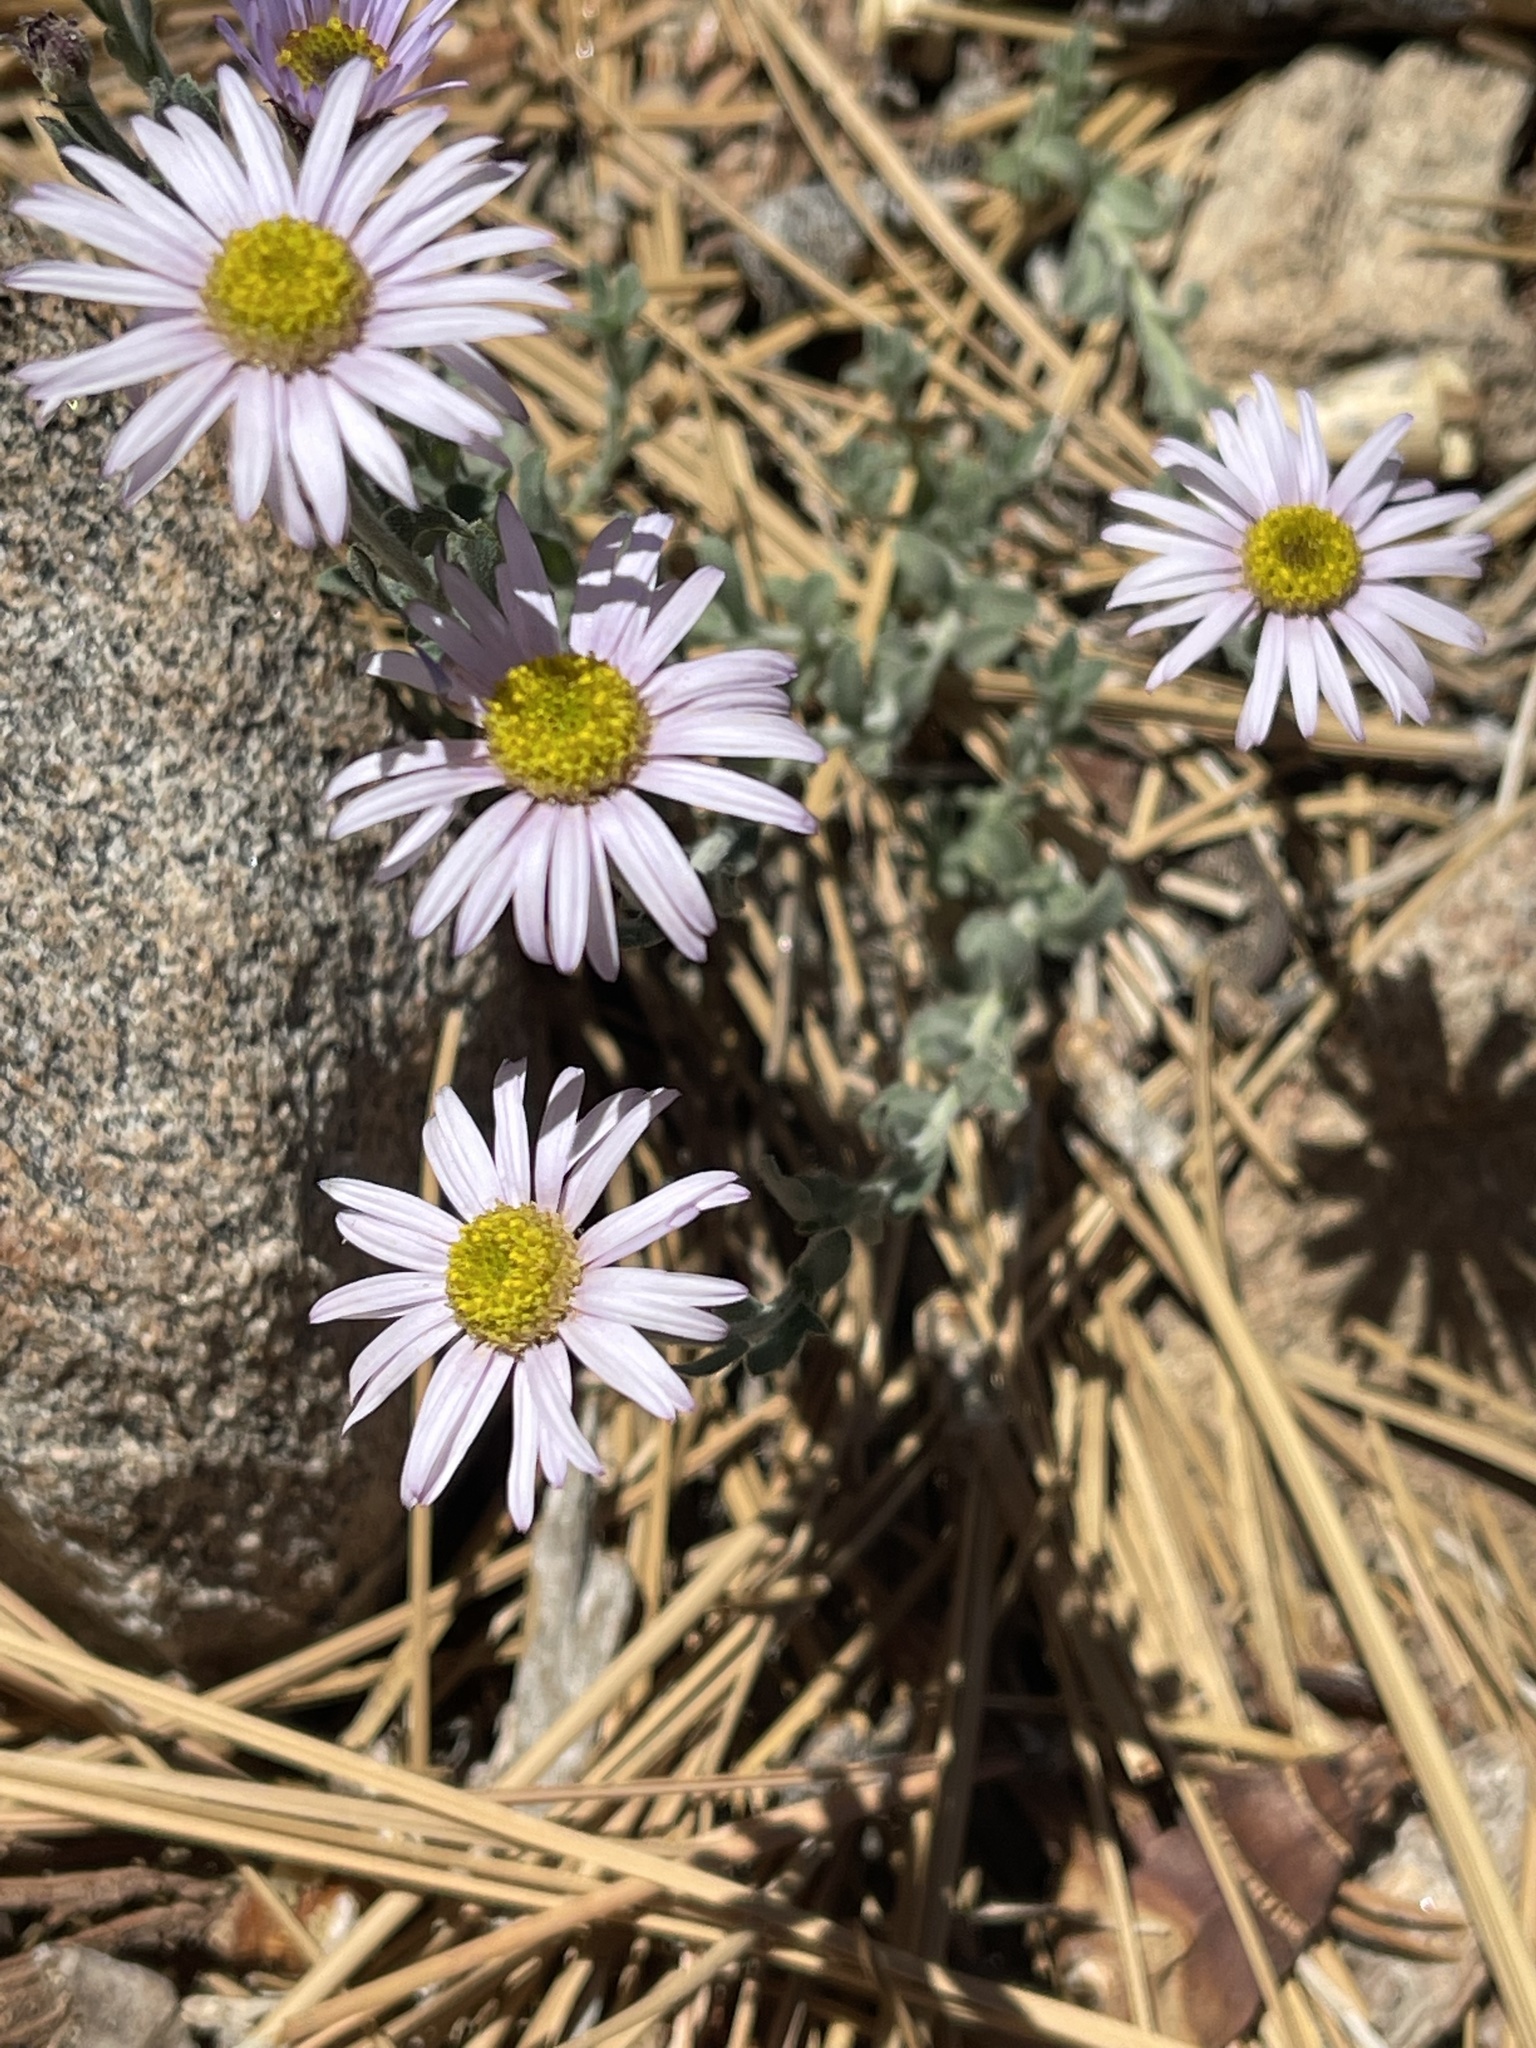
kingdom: Plantae
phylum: Tracheophyta
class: Magnoliopsida
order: Asterales
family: Asteraceae
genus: Erigeron
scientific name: Erigeron breweri
